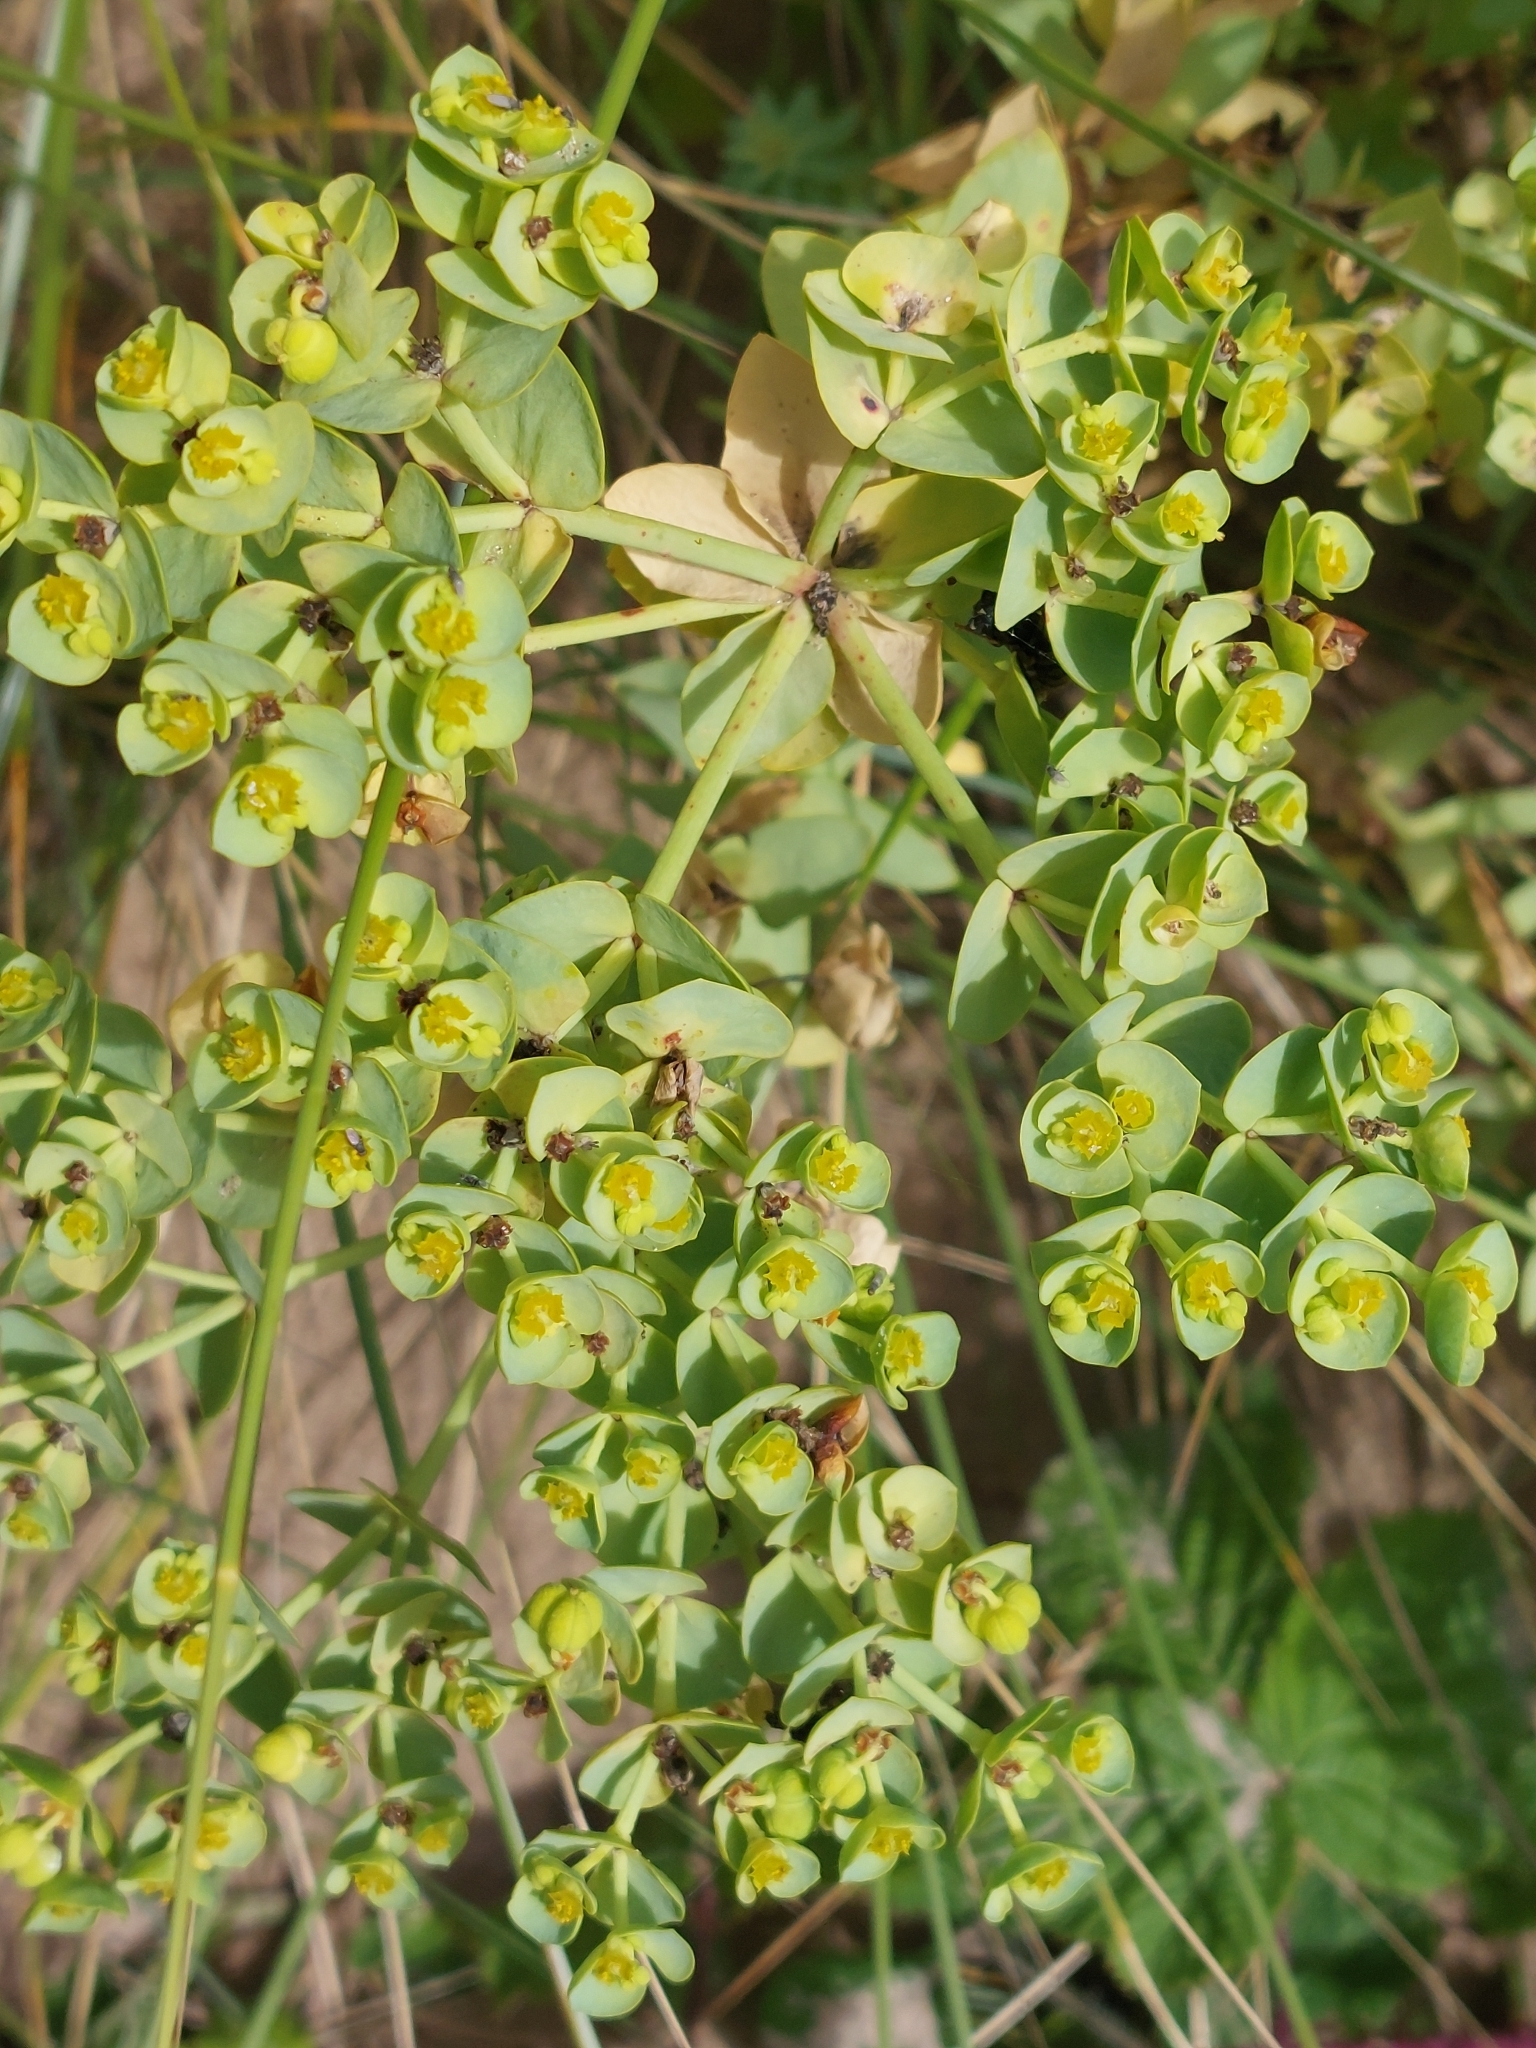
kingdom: Plantae
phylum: Tracheophyta
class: Magnoliopsida
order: Malpighiales
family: Euphorbiaceae
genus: Euphorbia
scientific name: Euphorbia paralias
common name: Sea spurge
